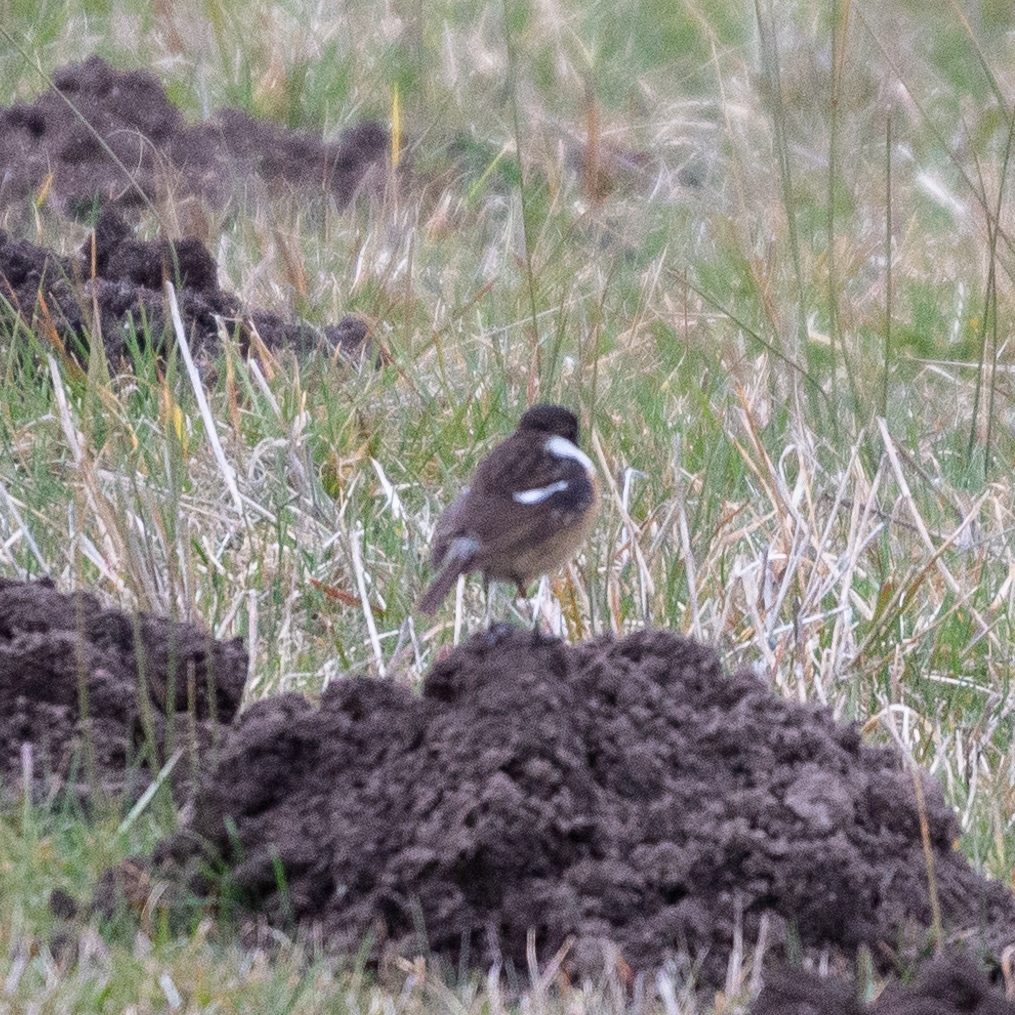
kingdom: Animalia
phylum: Chordata
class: Aves
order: Passeriformes
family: Muscicapidae
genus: Saxicola
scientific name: Saxicola rubicola
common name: European stonechat
